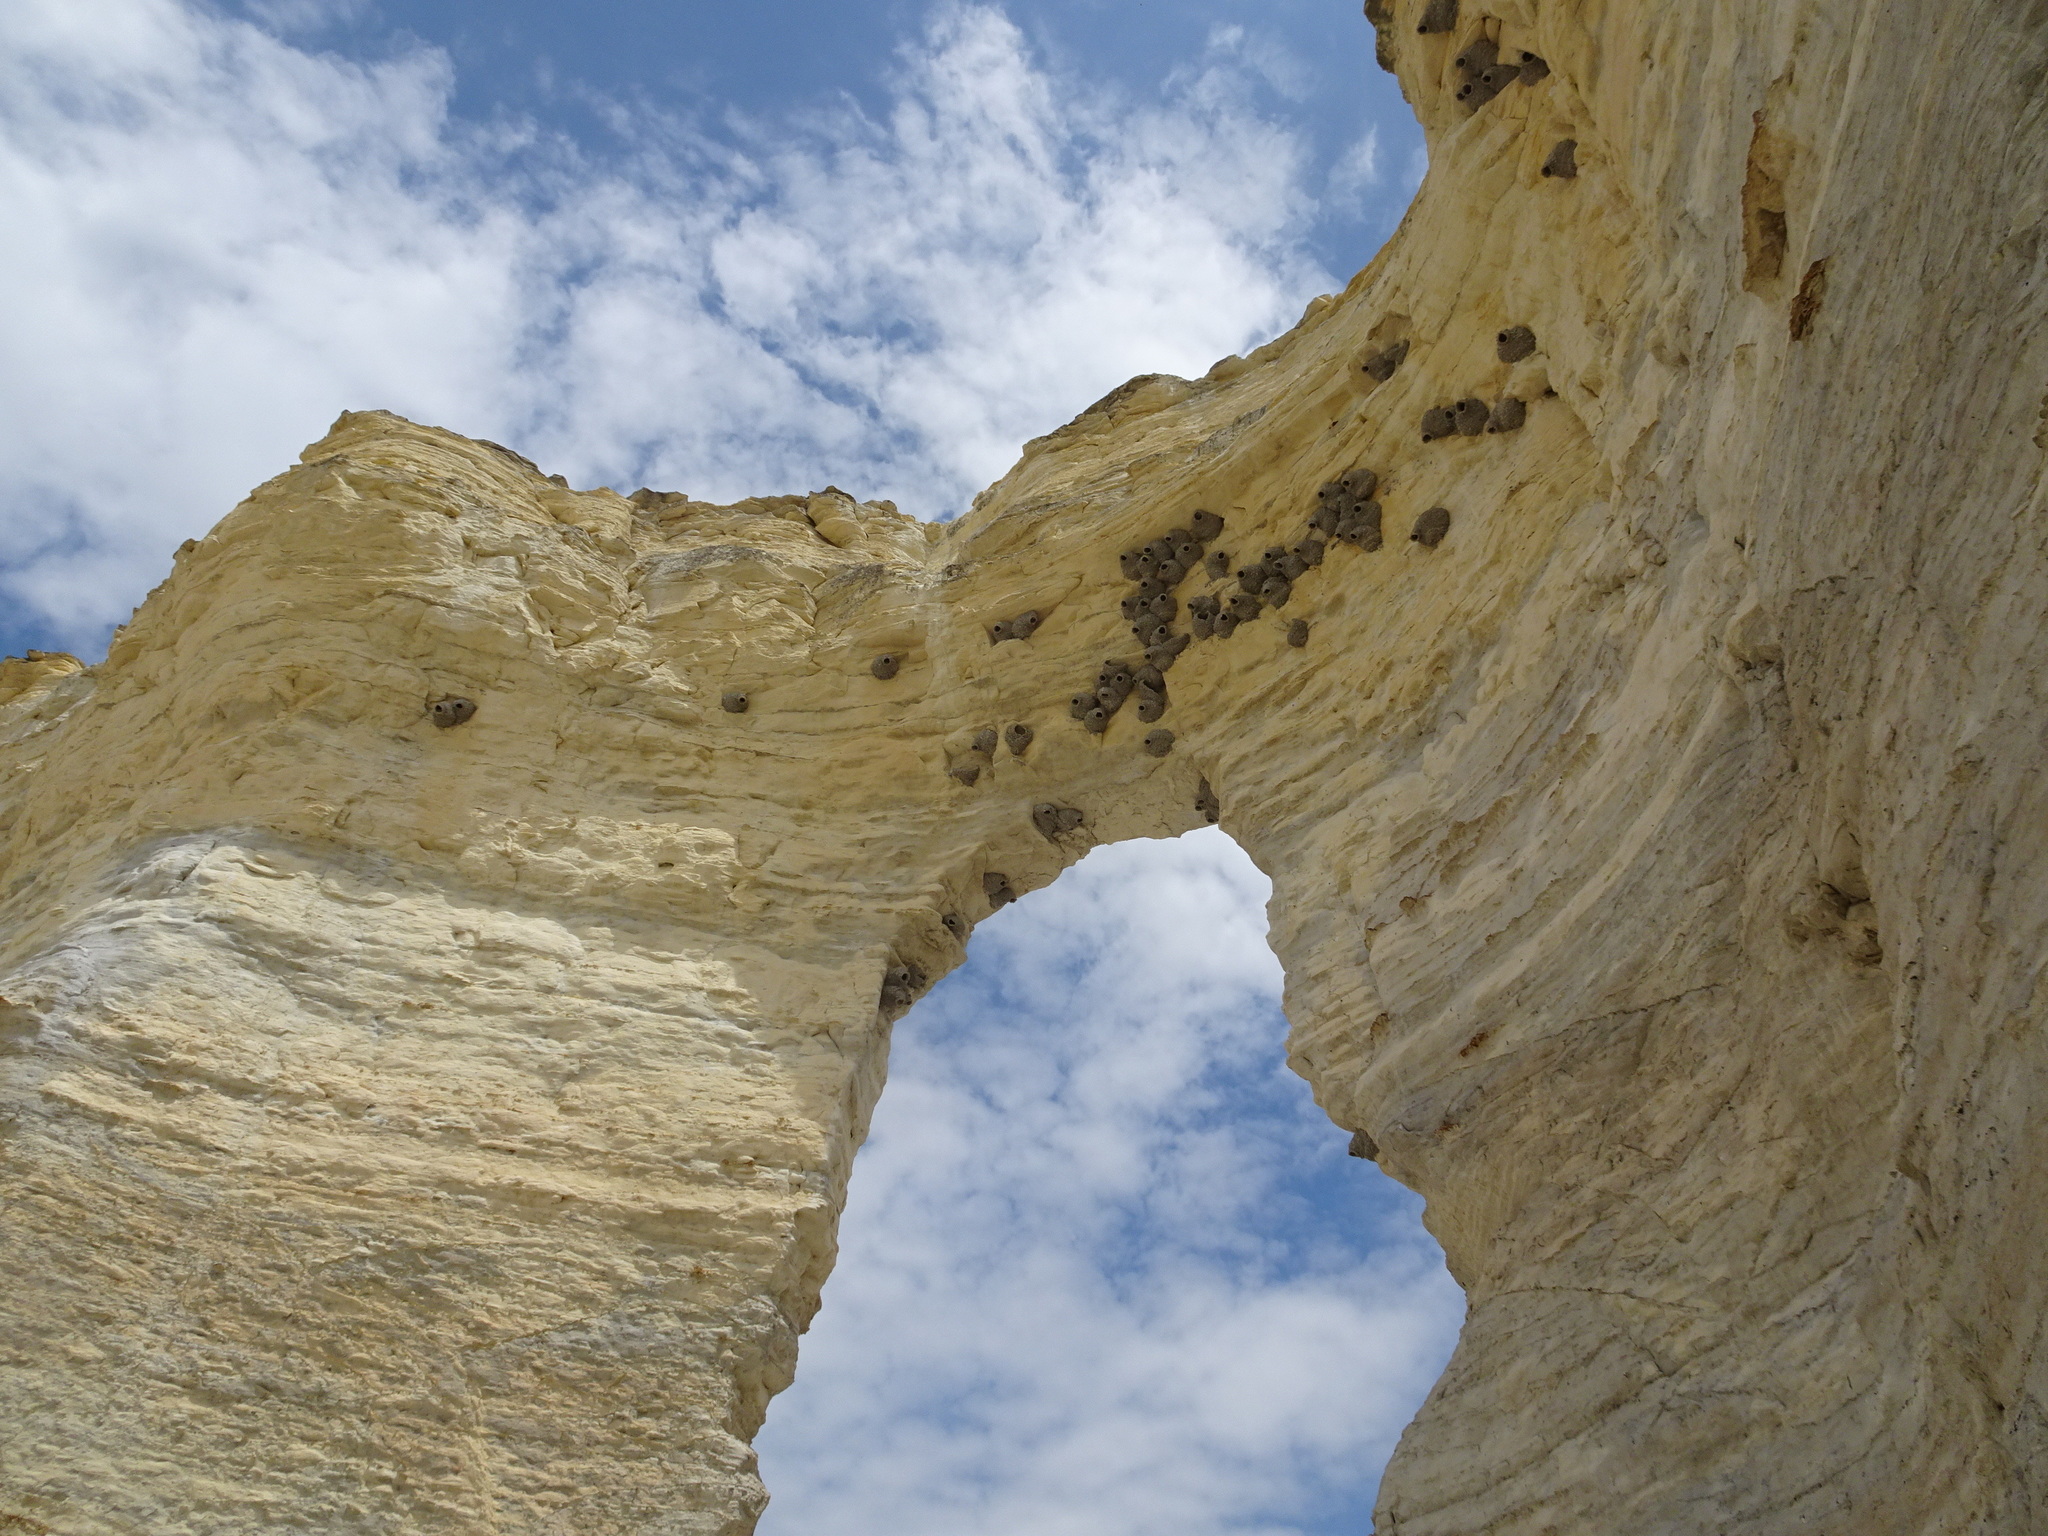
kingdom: Animalia
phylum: Chordata
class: Aves
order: Passeriformes
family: Hirundinidae
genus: Petrochelidon
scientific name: Petrochelidon pyrrhonota
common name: American cliff swallow
